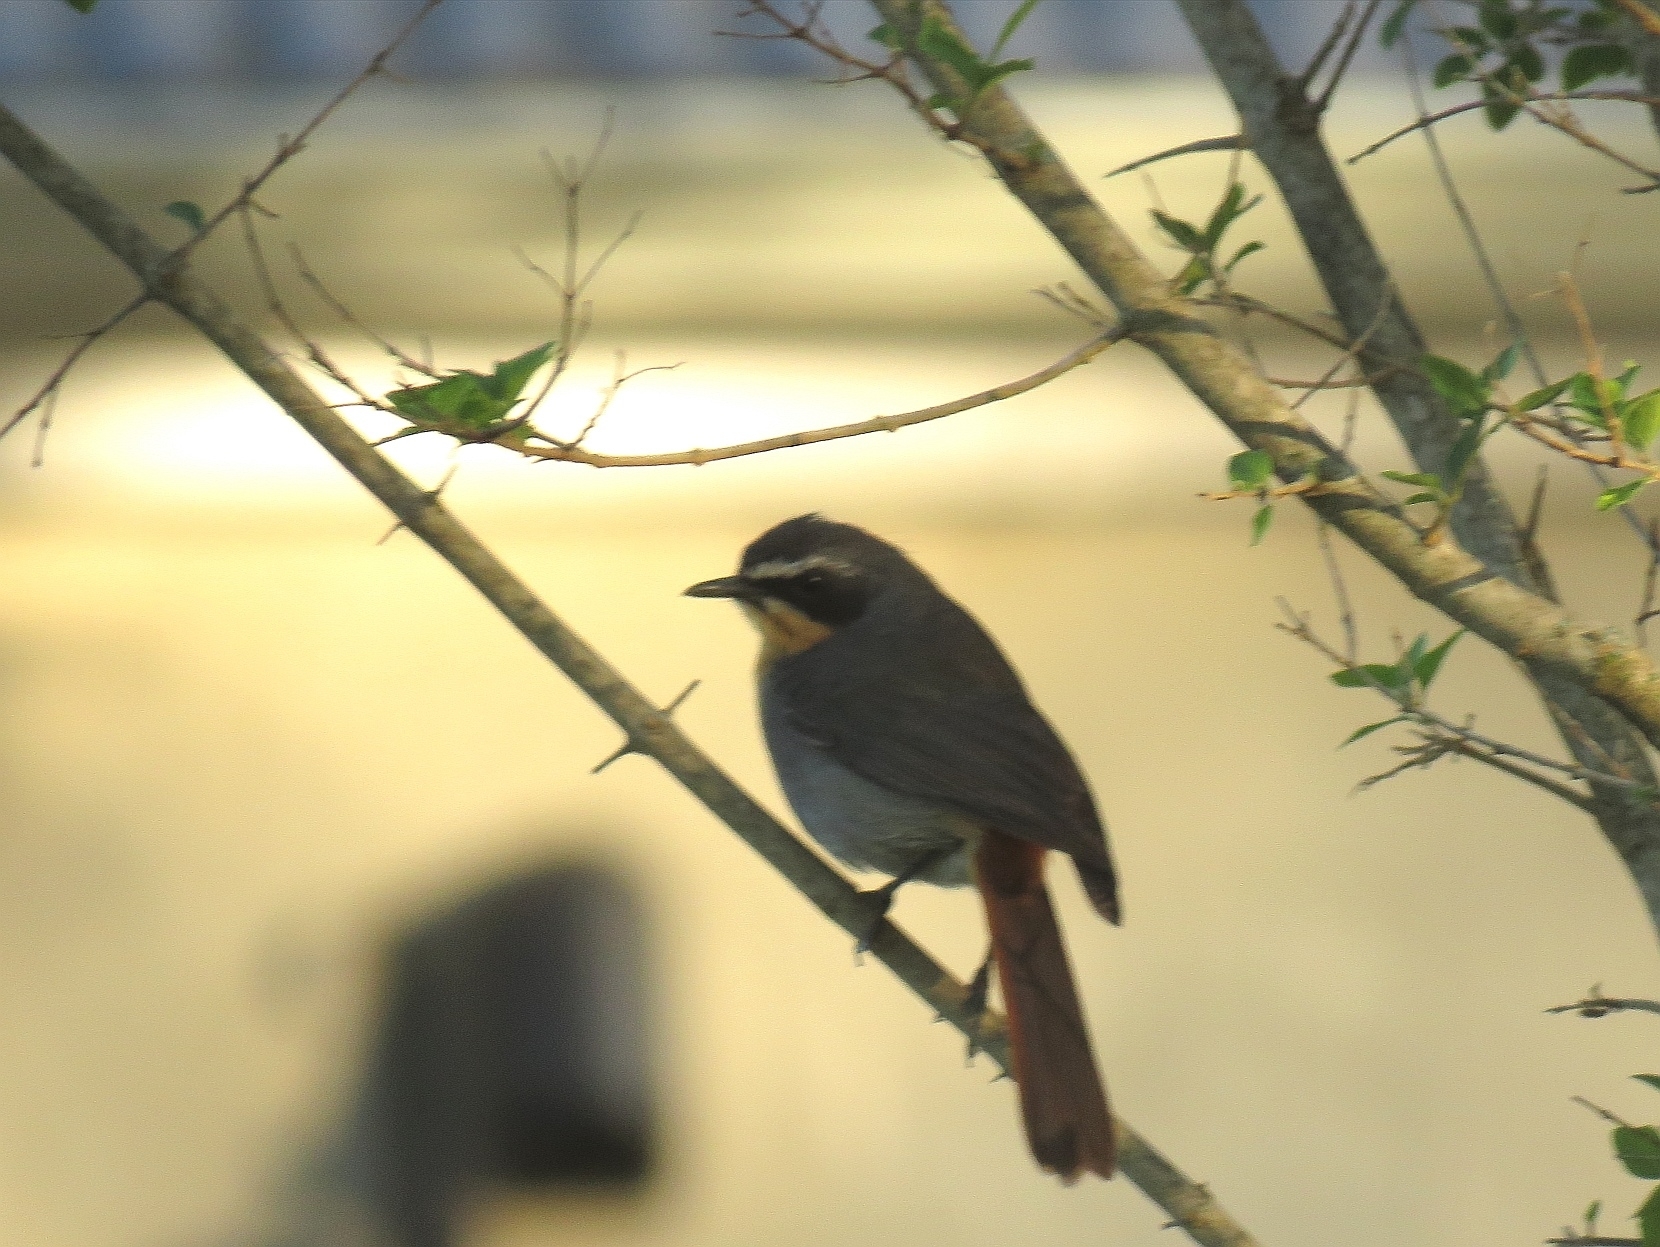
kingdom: Animalia
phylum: Chordata
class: Aves
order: Passeriformes
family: Muscicapidae
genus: Cossypha
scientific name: Cossypha caffra
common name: Cape robin-chat
